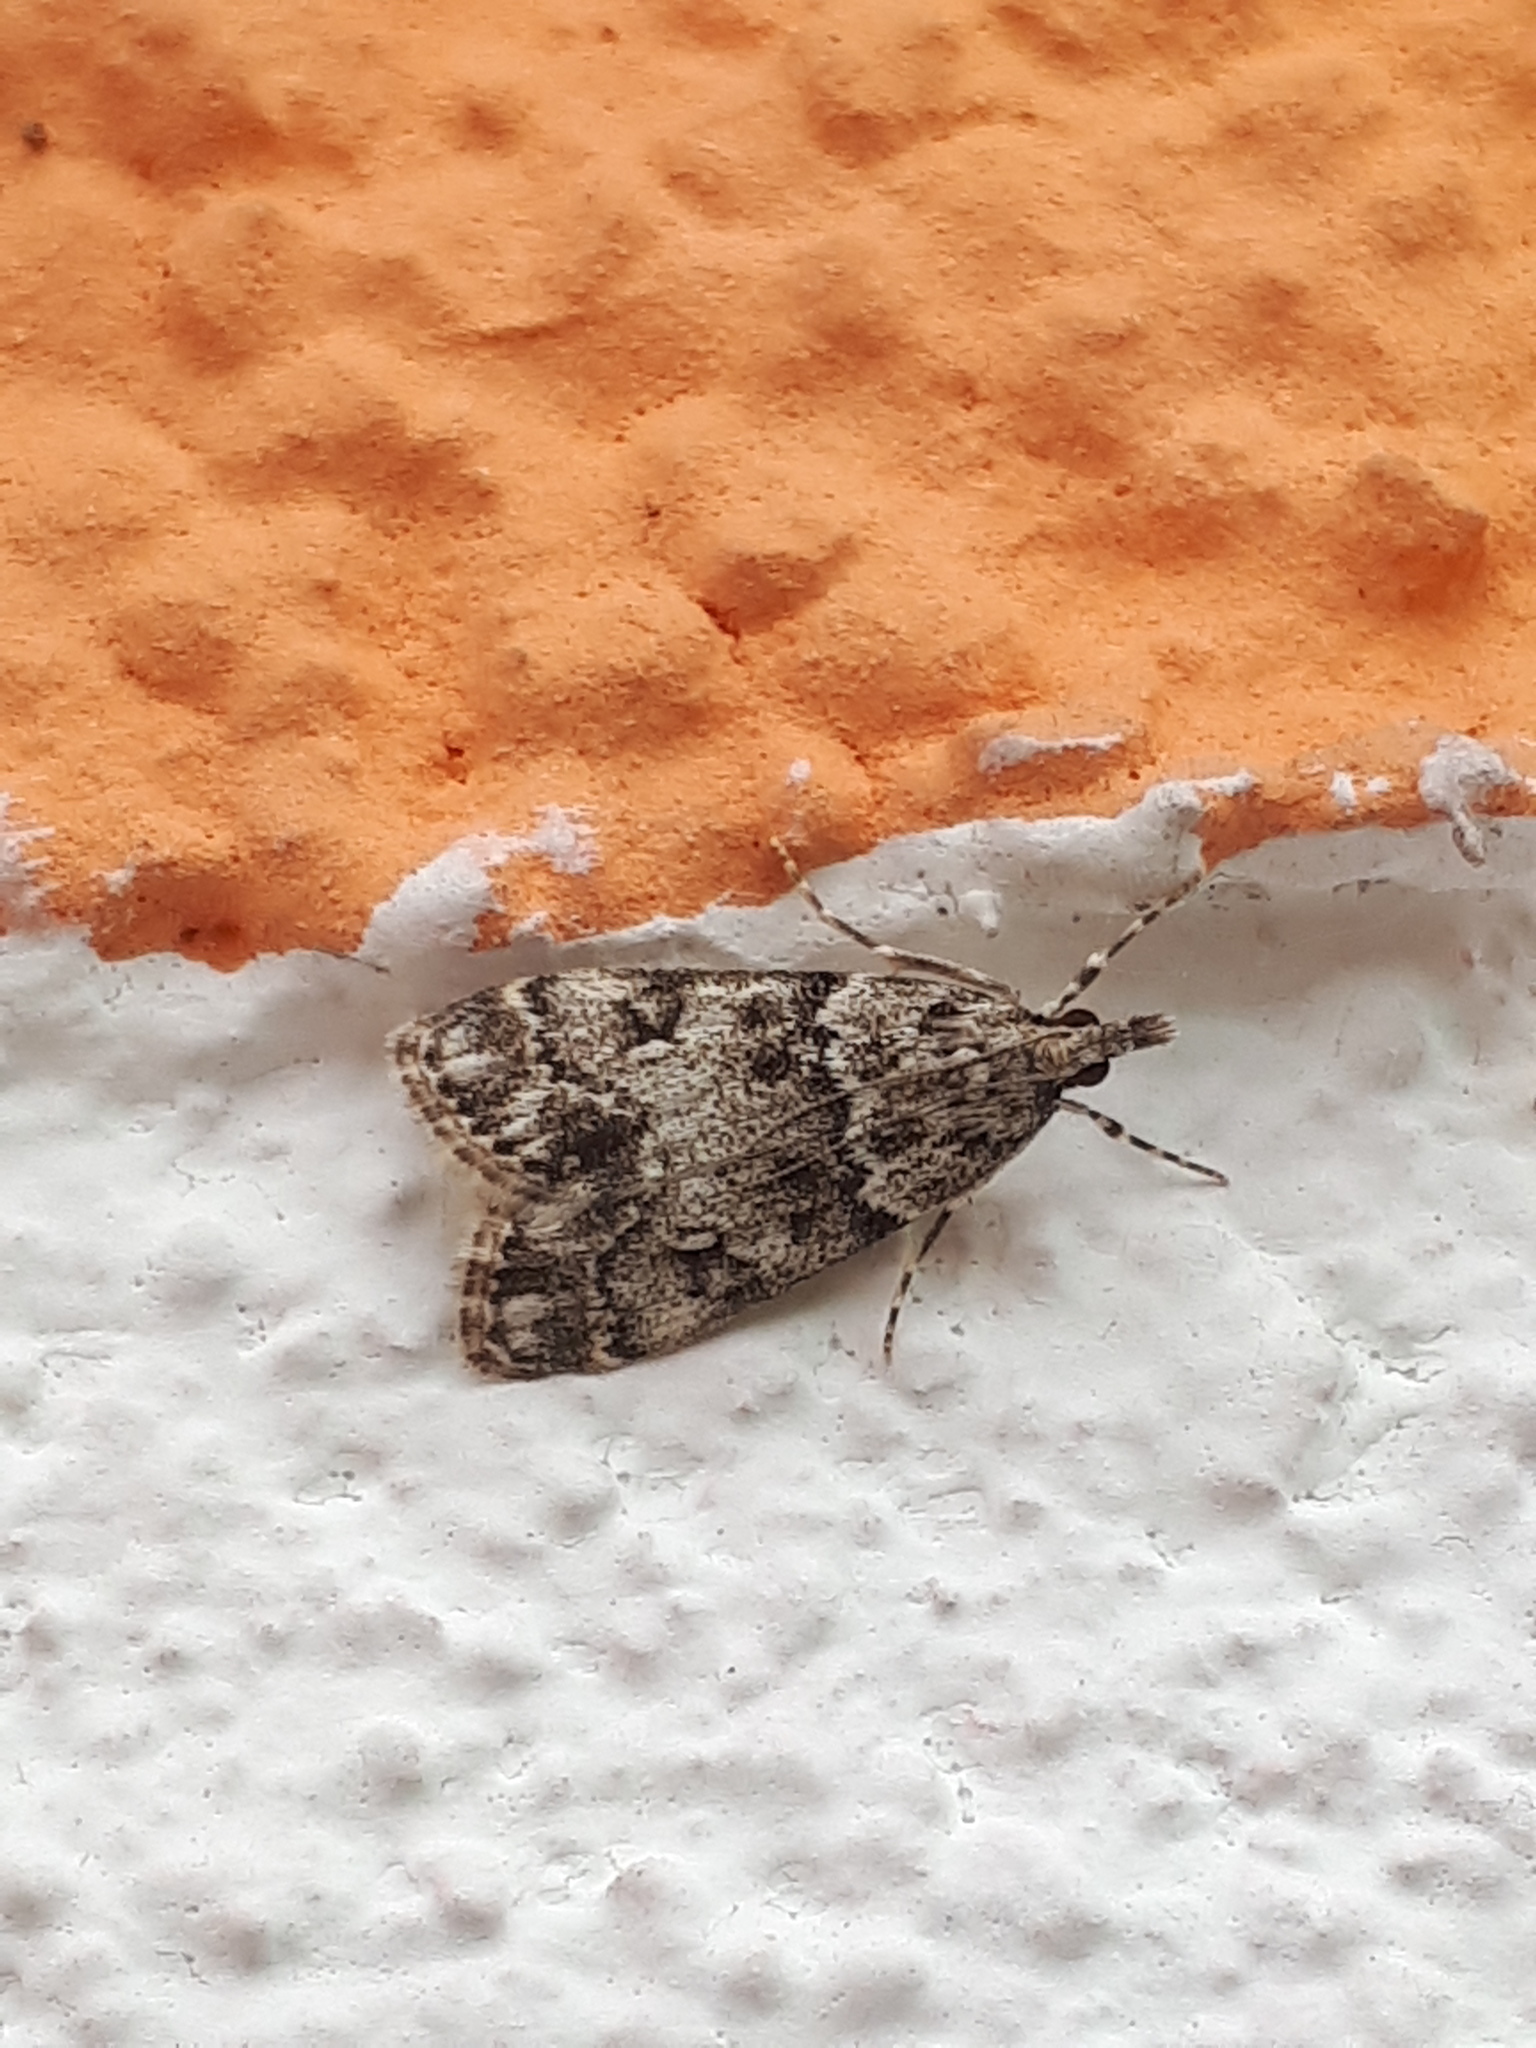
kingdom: Animalia
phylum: Arthropoda
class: Insecta
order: Lepidoptera
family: Crambidae
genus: Eudonia
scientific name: Eudonia lacustrata
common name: Little grey
